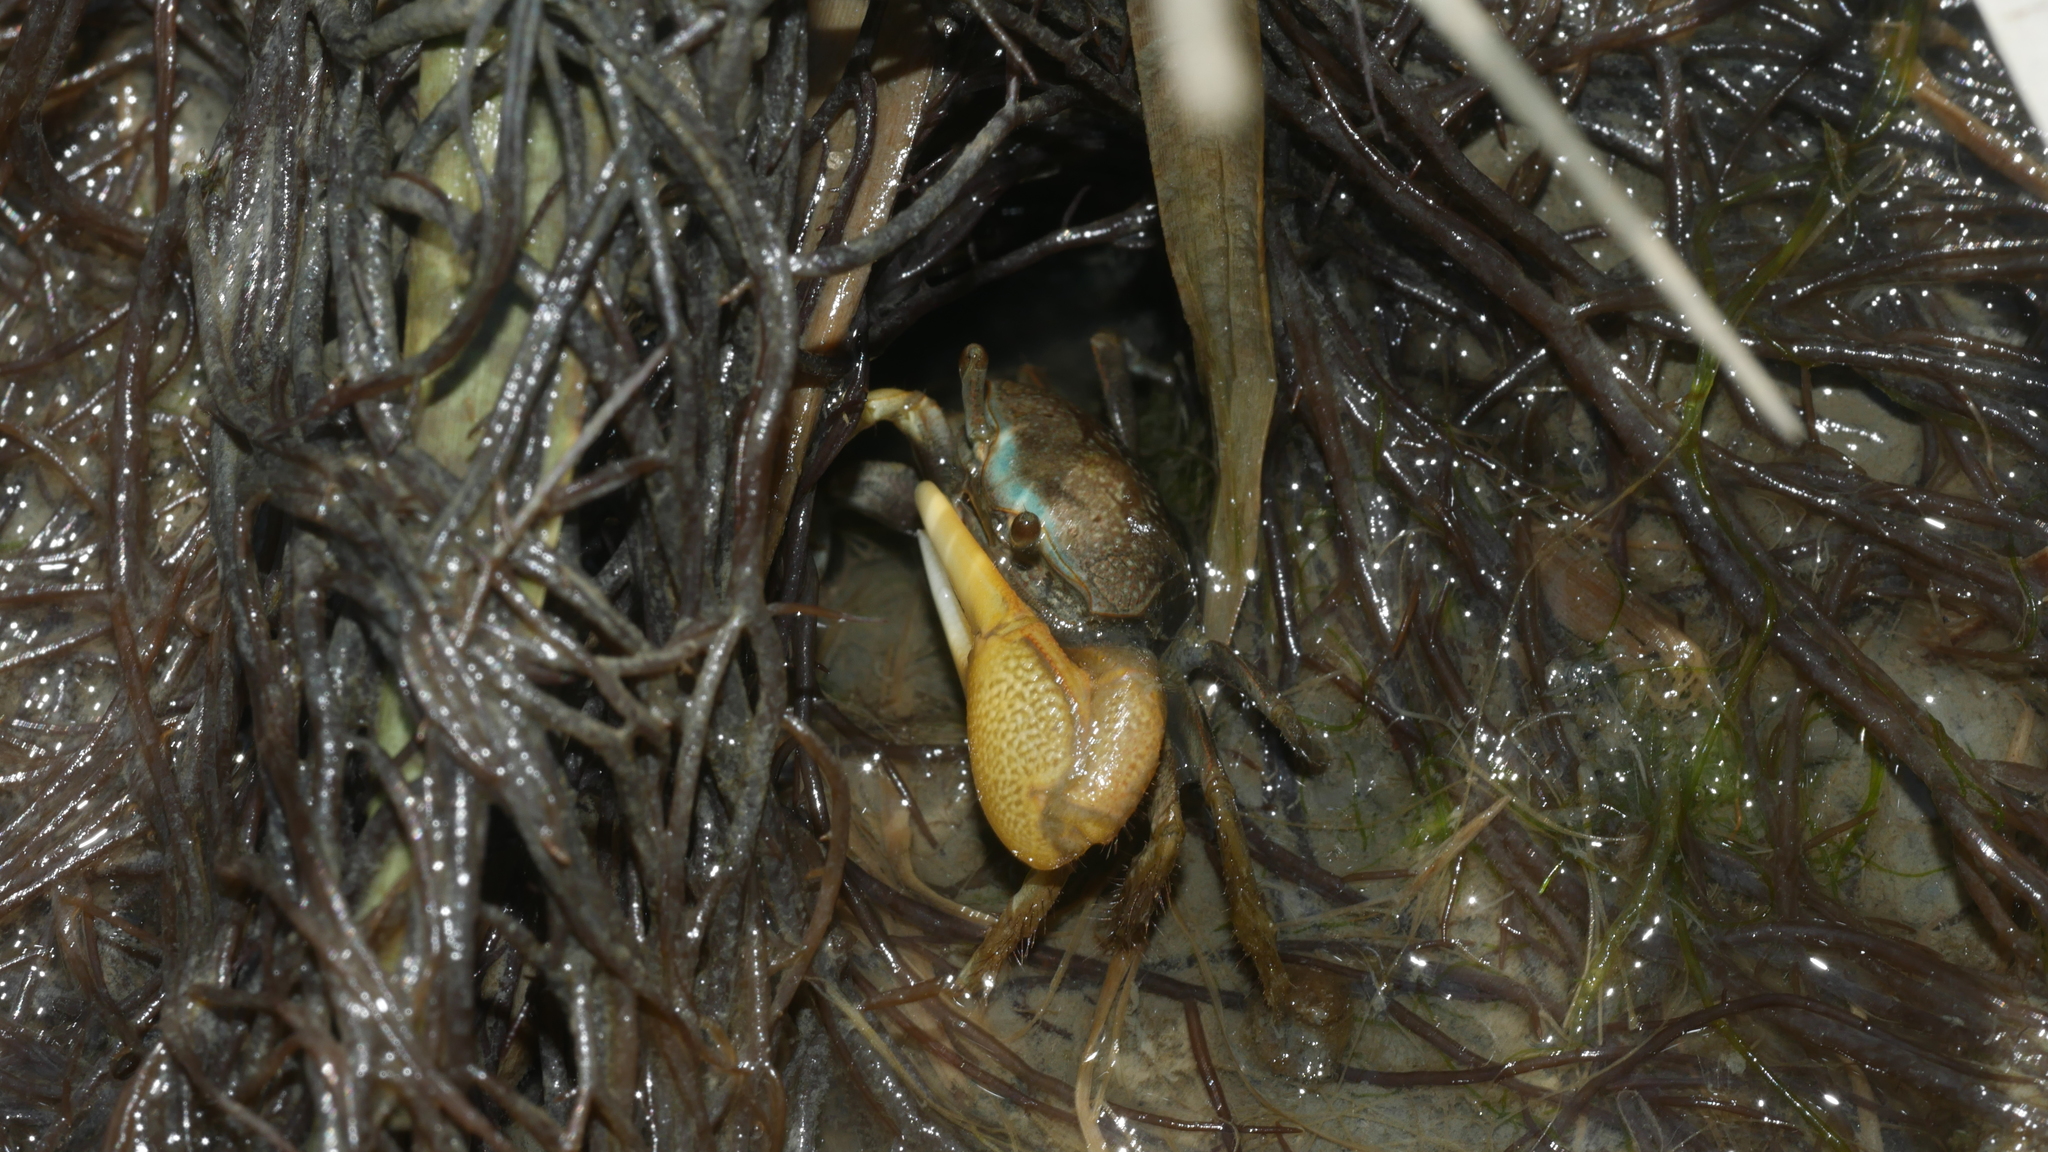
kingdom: Animalia
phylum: Arthropoda
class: Malacostraca
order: Decapoda
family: Ocypodidae
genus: Minuca
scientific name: Minuca pugnax
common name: Mud fiddler crab
